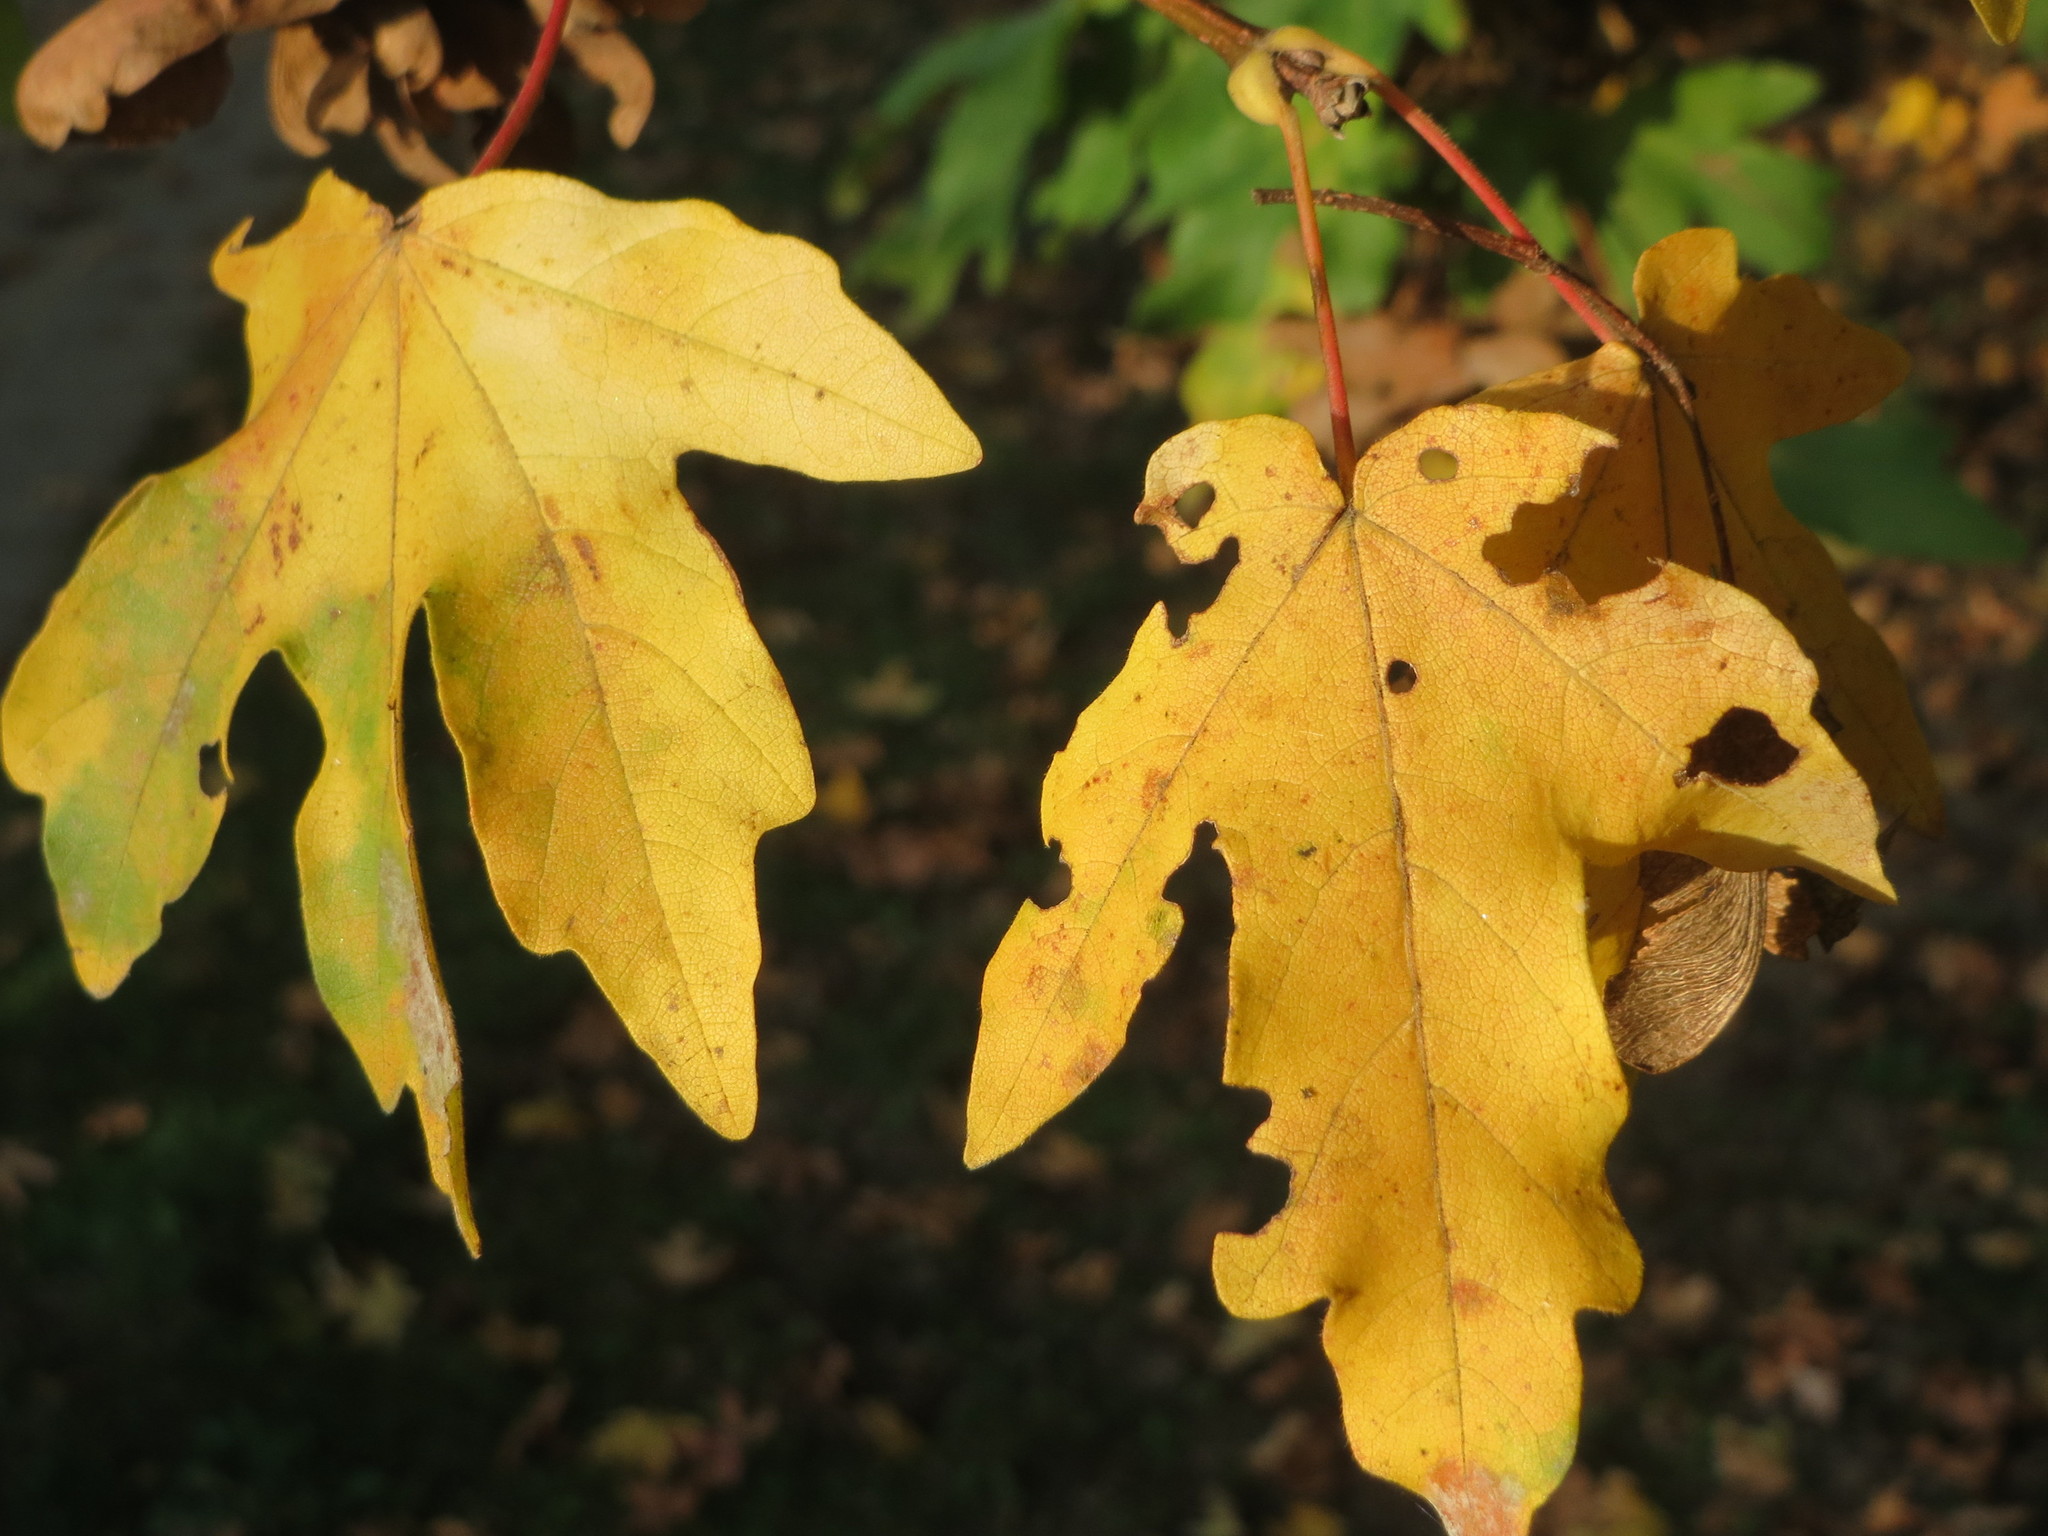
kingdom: Plantae
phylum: Tracheophyta
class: Magnoliopsida
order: Sapindales
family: Sapindaceae
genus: Acer
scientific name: Acer campestre
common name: Field maple
